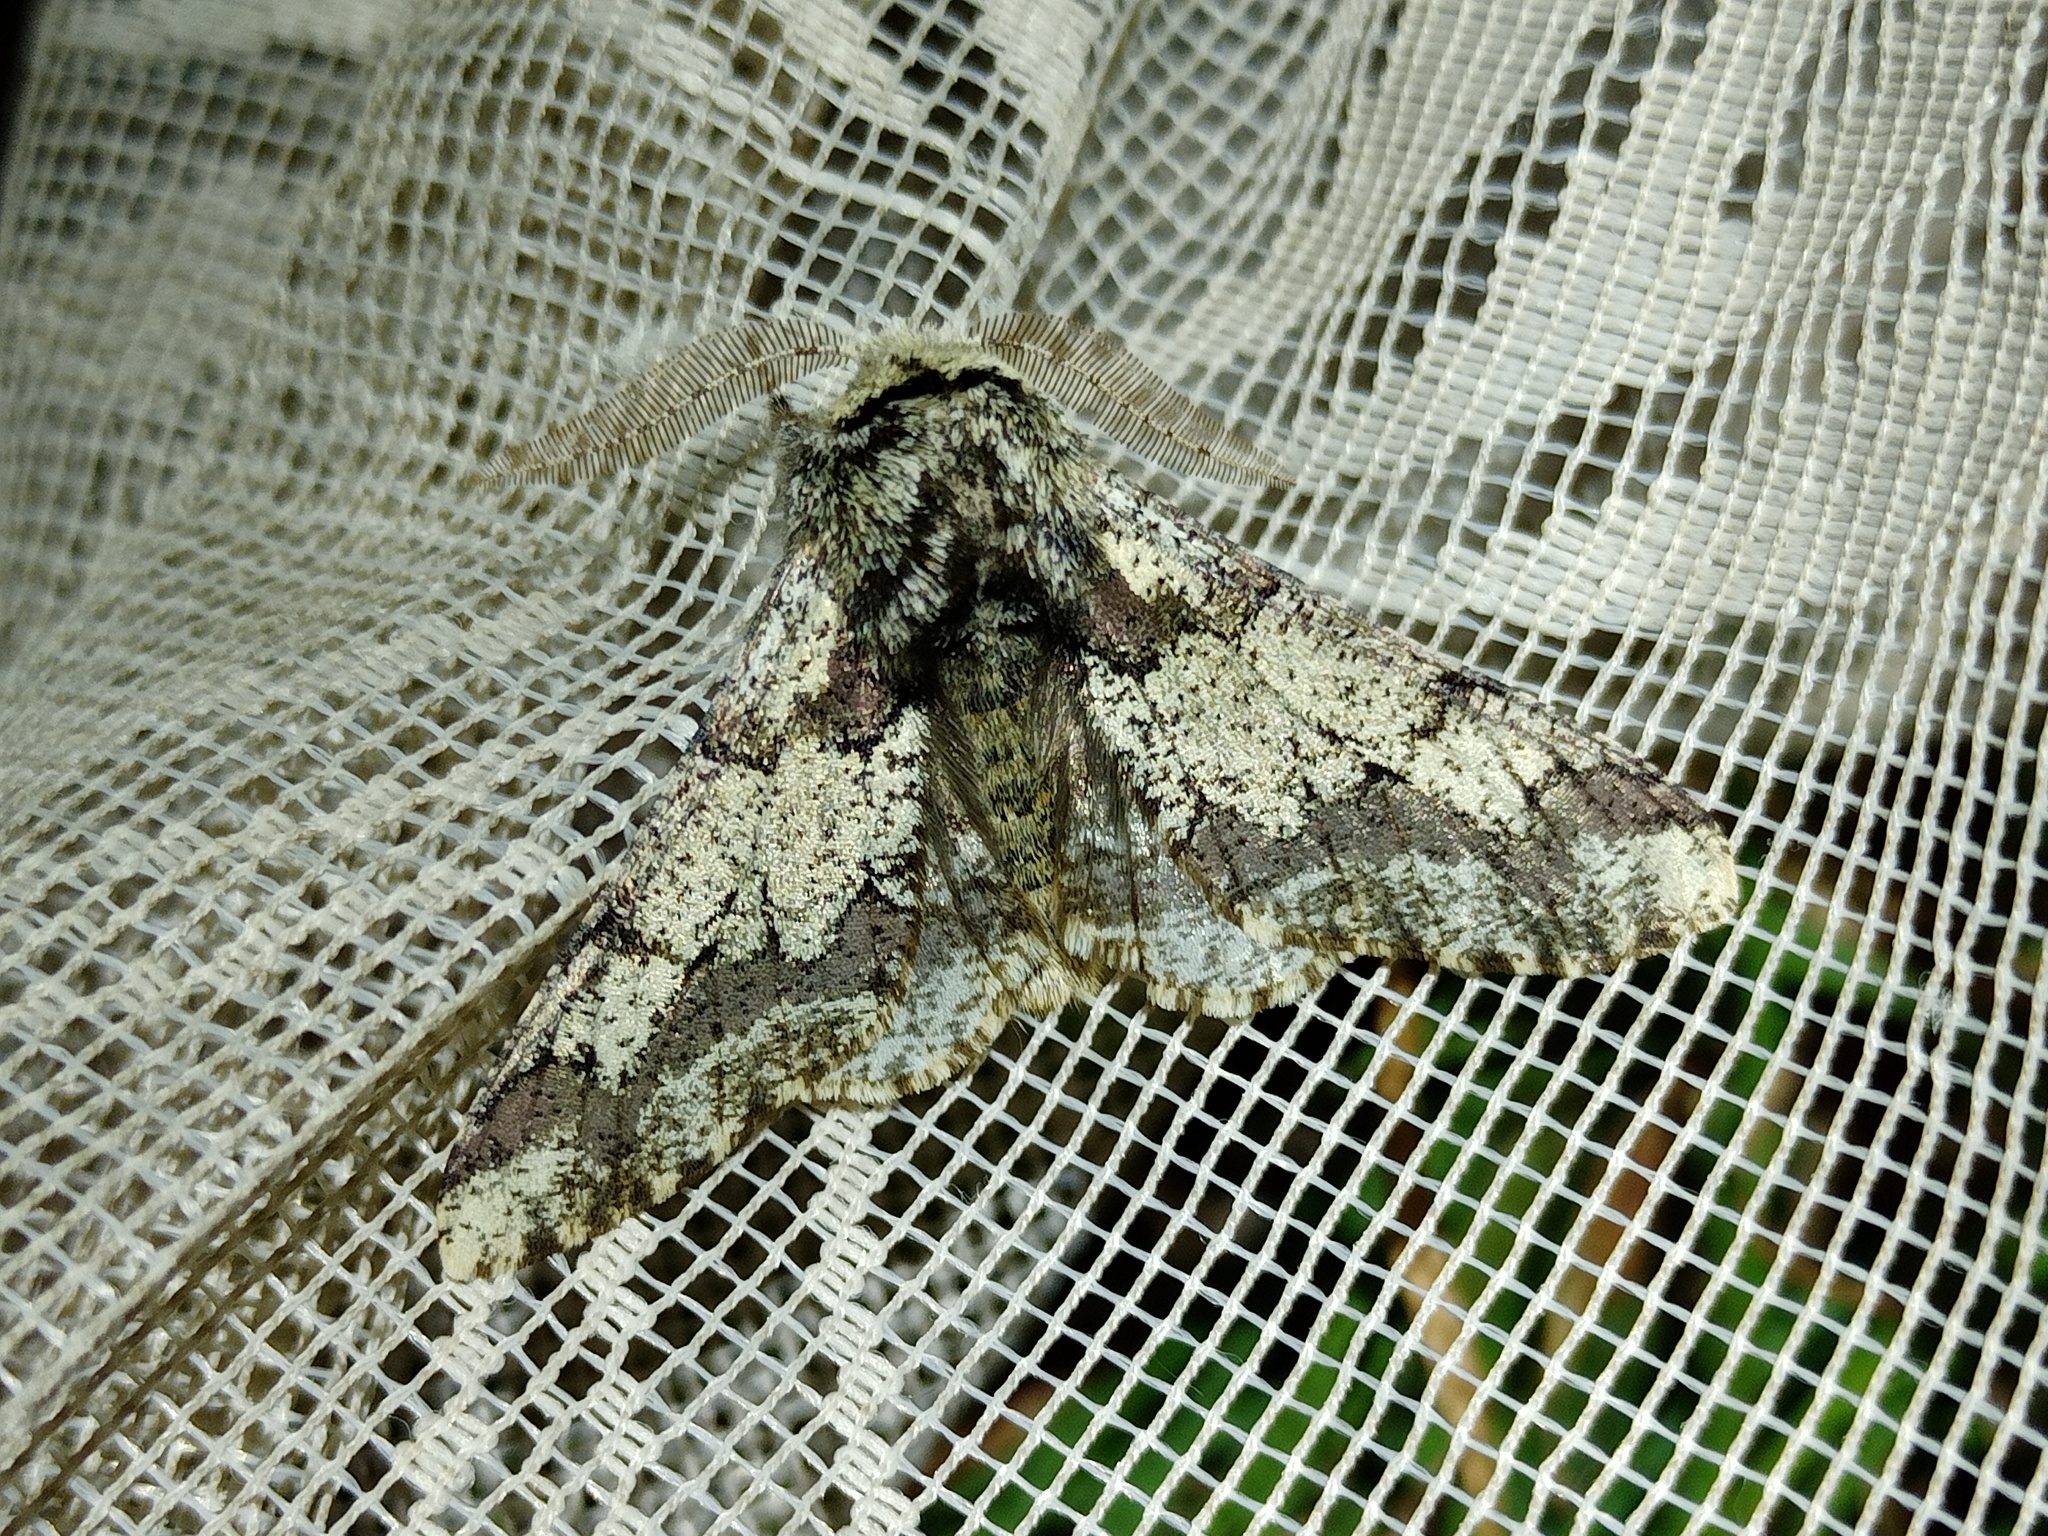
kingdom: Animalia
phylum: Arthropoda
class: Insecta
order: Lepidoptera
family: Geometridae
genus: Biston
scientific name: Biston strataria
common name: Oak beauty
